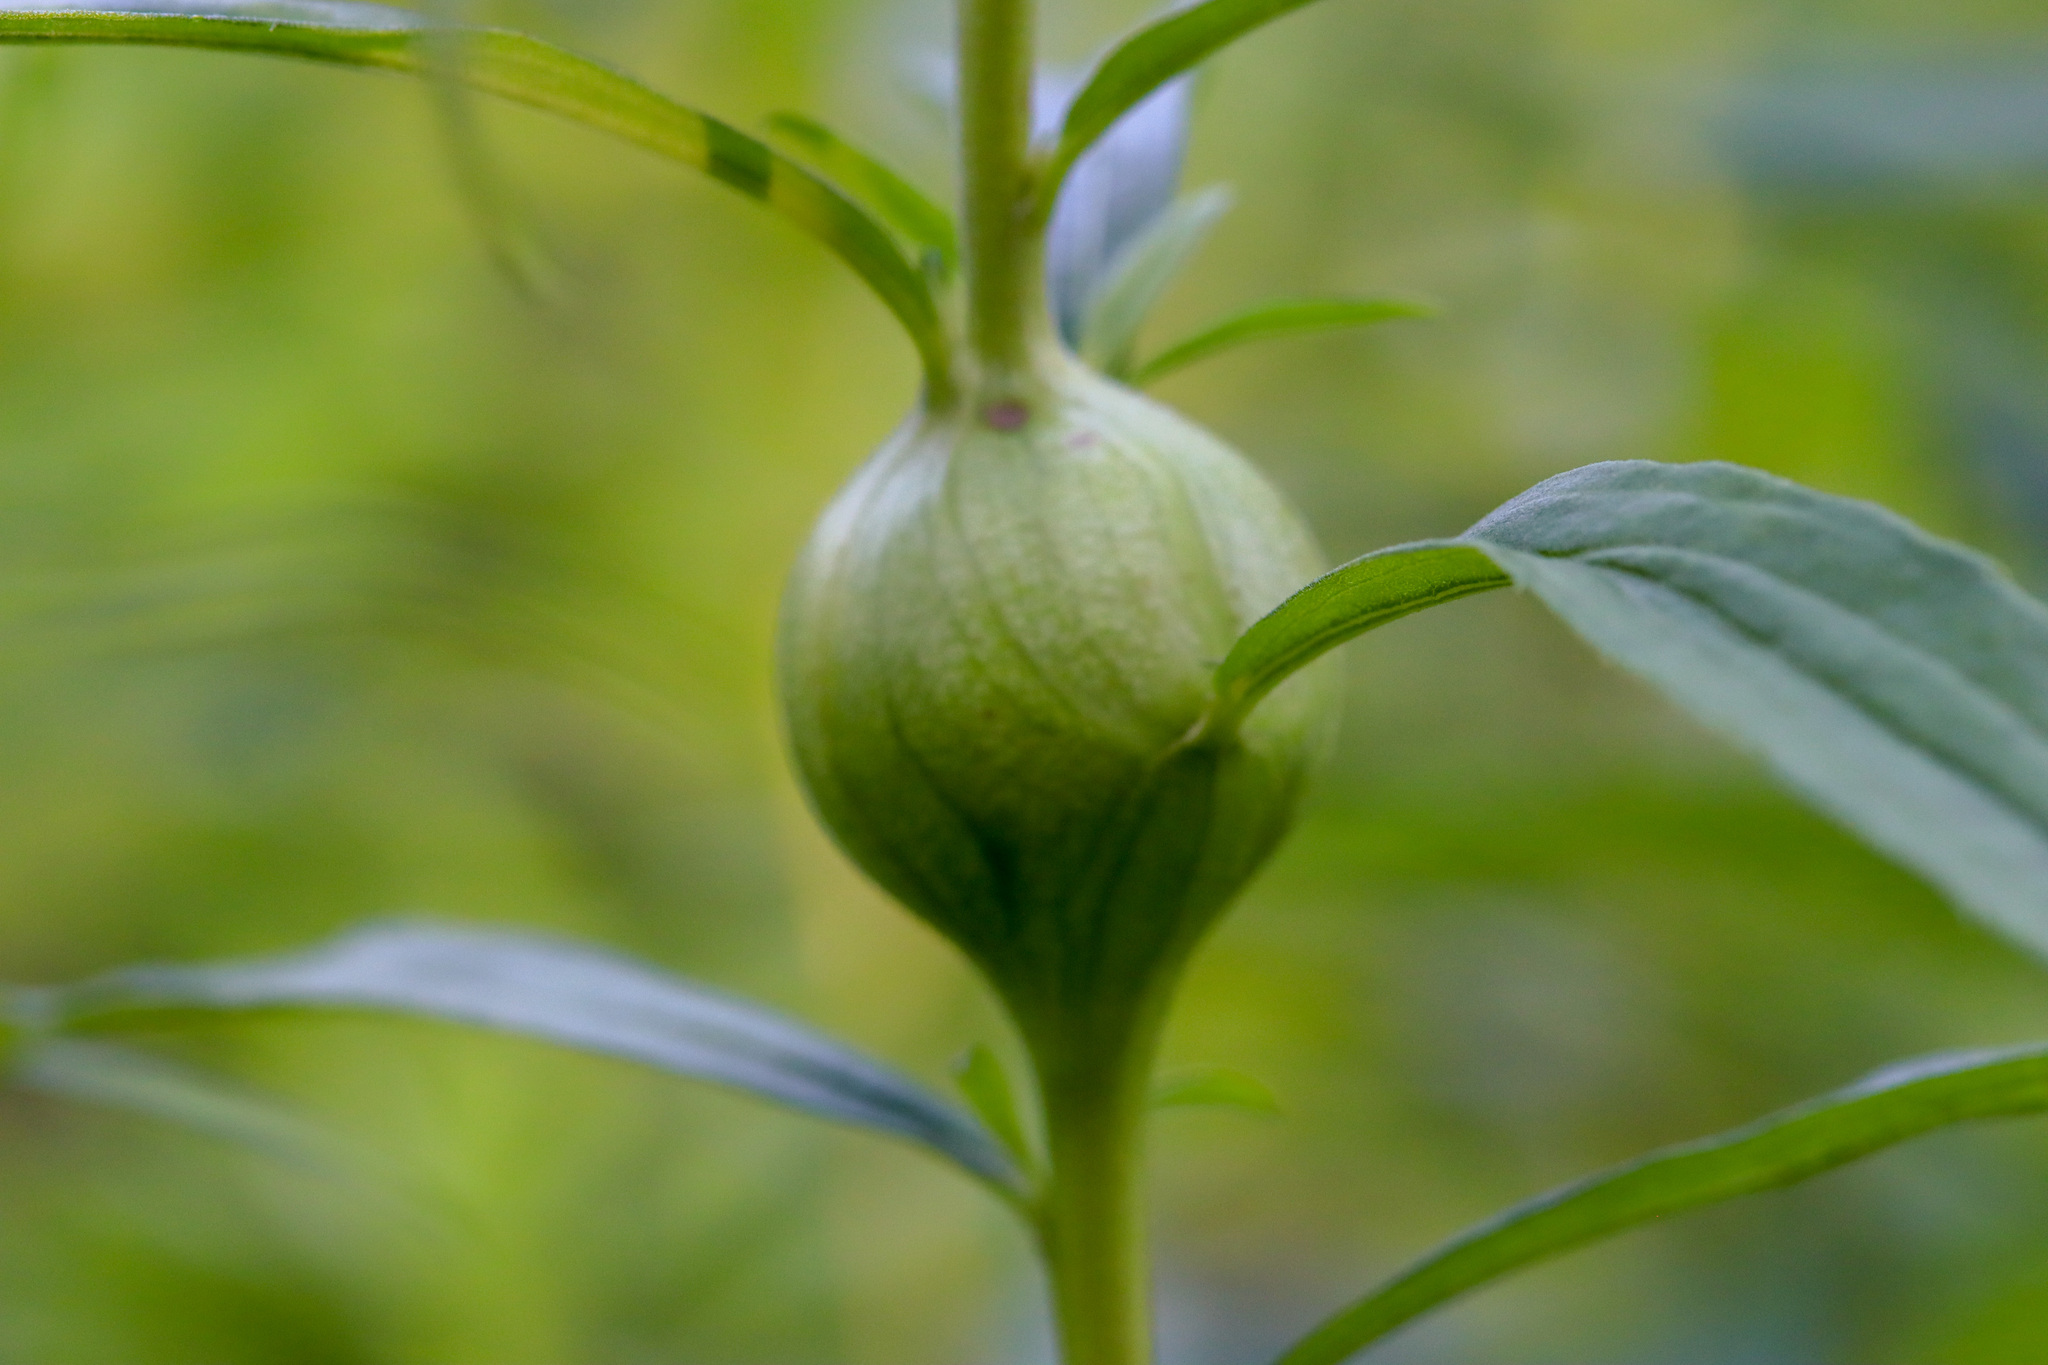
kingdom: Animalia
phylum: Arthropoda
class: Insecta
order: Diptera
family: Tephritidae
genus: Eurosta
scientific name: Eurosta solidaginis
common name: Goldenrod gall fly
